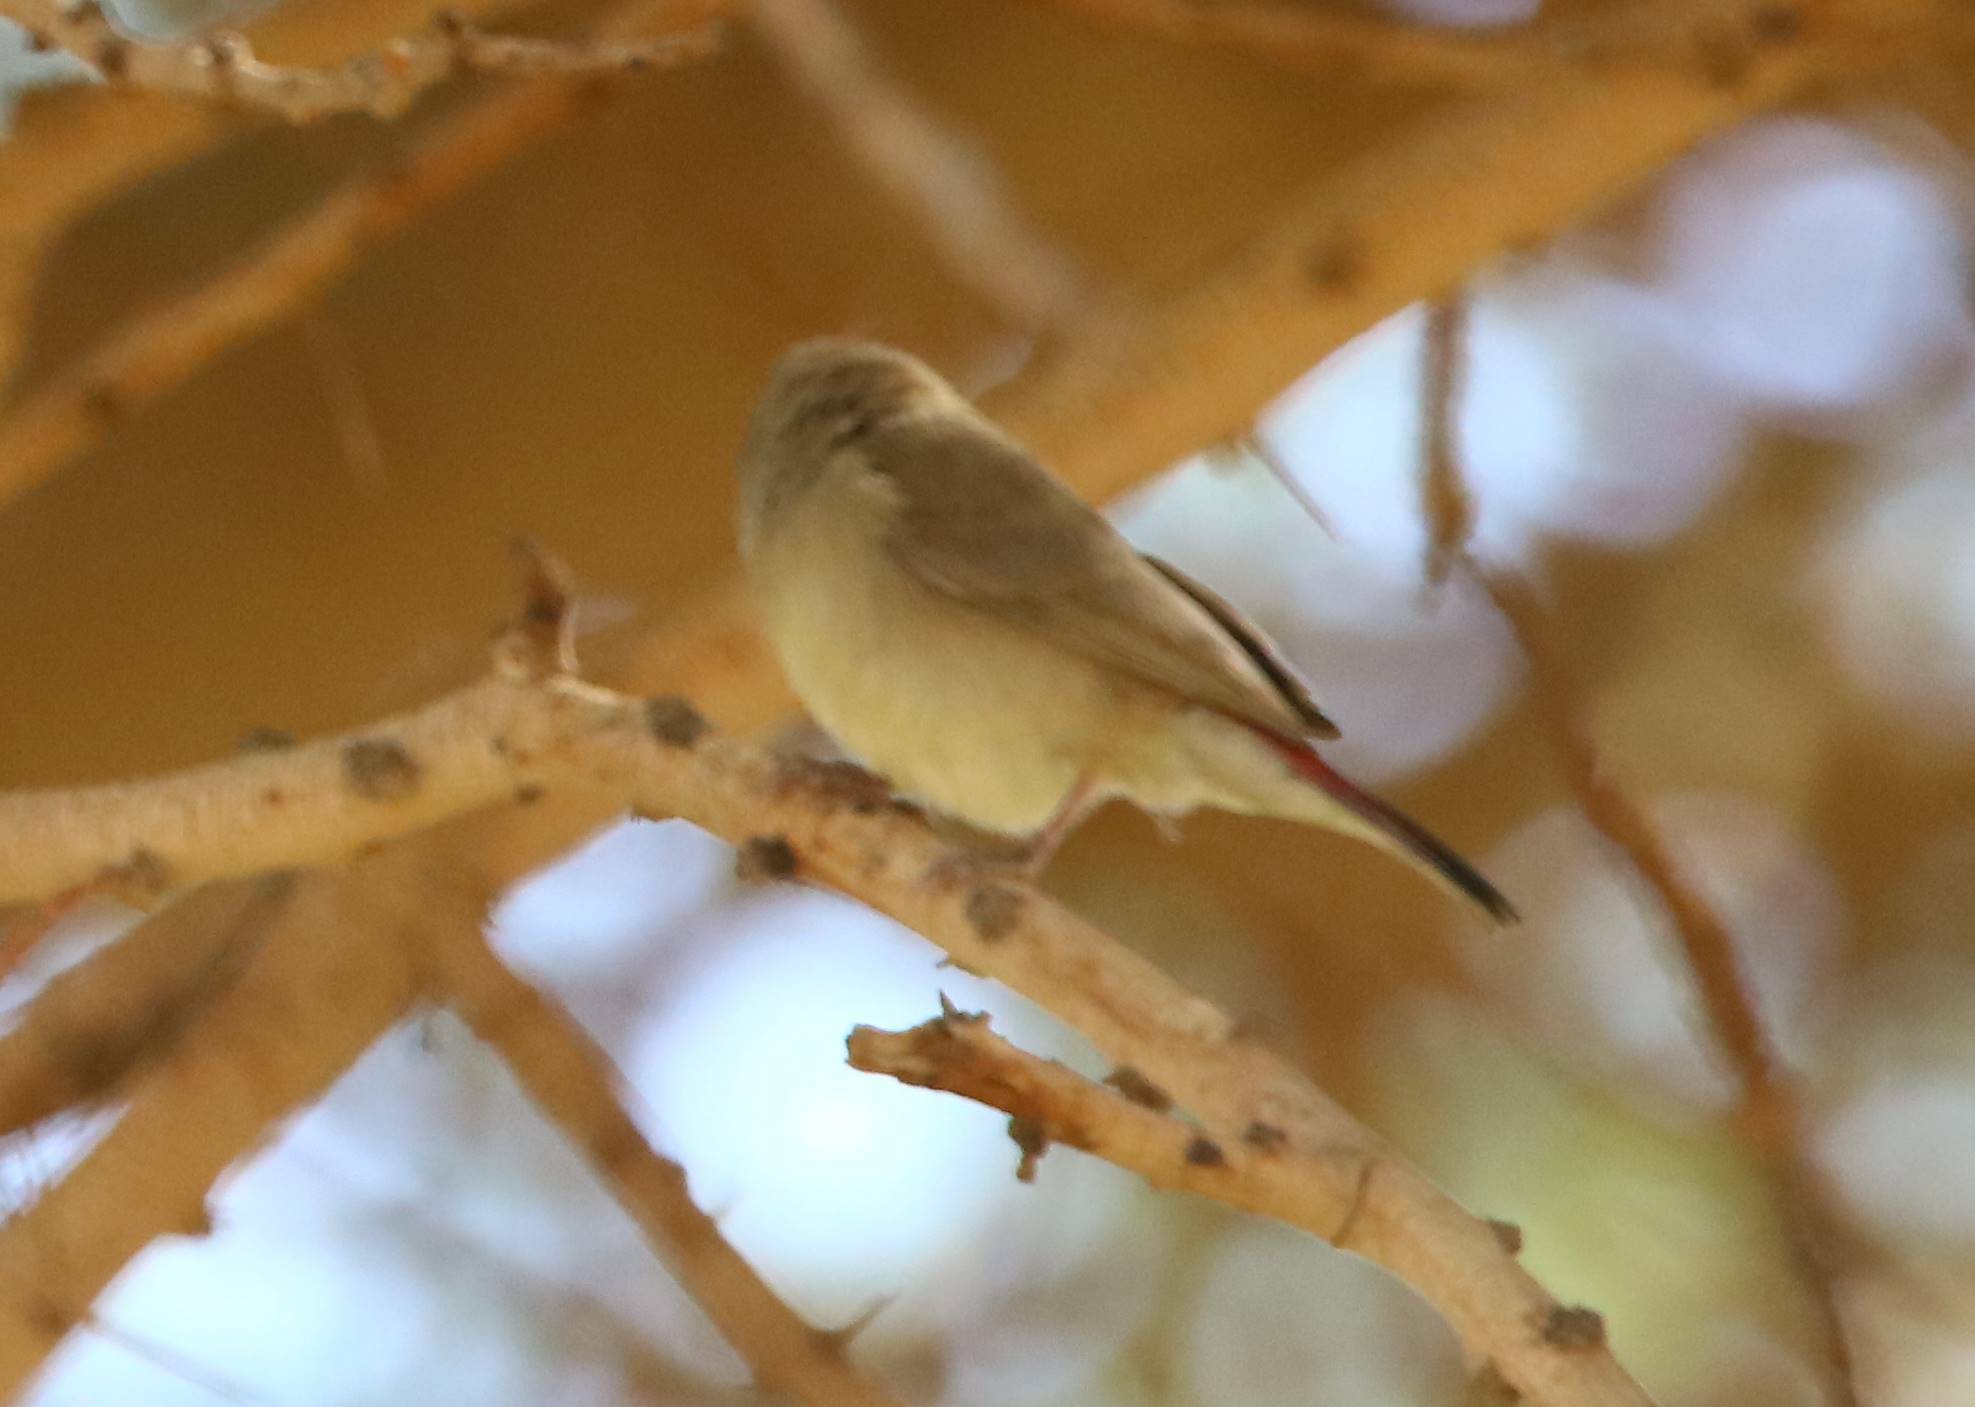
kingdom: Animalia
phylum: Chordata
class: Aves
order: Passeriformes
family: Estrildidae
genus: Lagonosticta
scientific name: Lagonosticta senegala
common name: Red-billed firefinch
